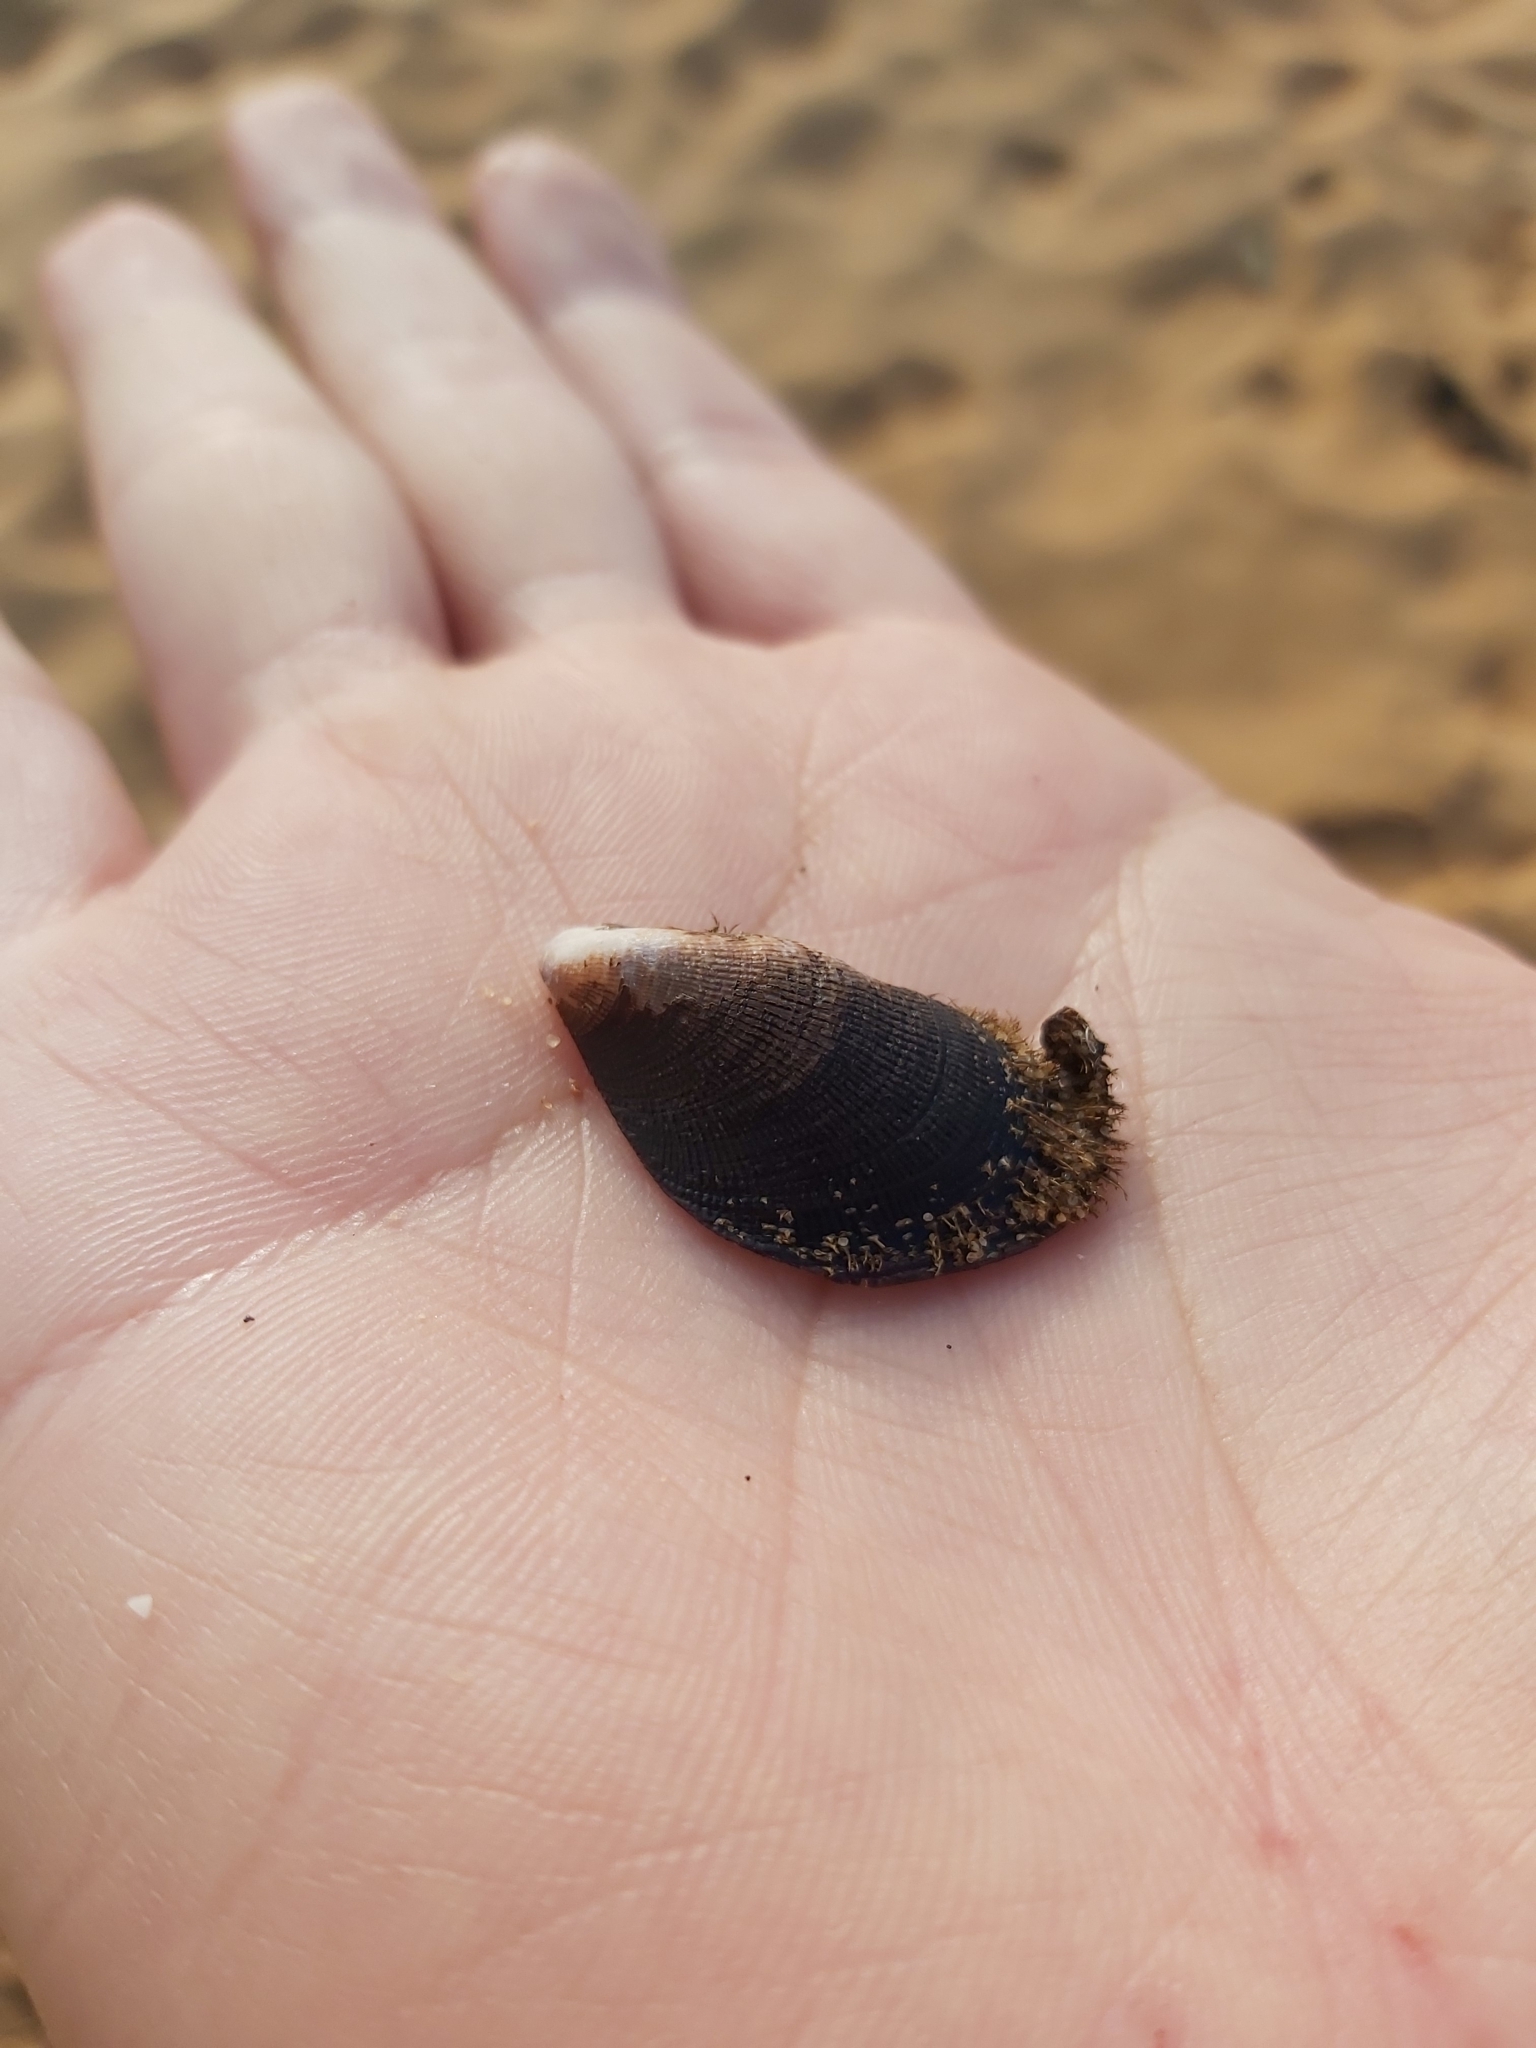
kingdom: Animalia
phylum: Mollusca
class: Bivalvia
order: Mytilida
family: Mytilidae
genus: Trichomya
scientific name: Trichomya hirsuta
